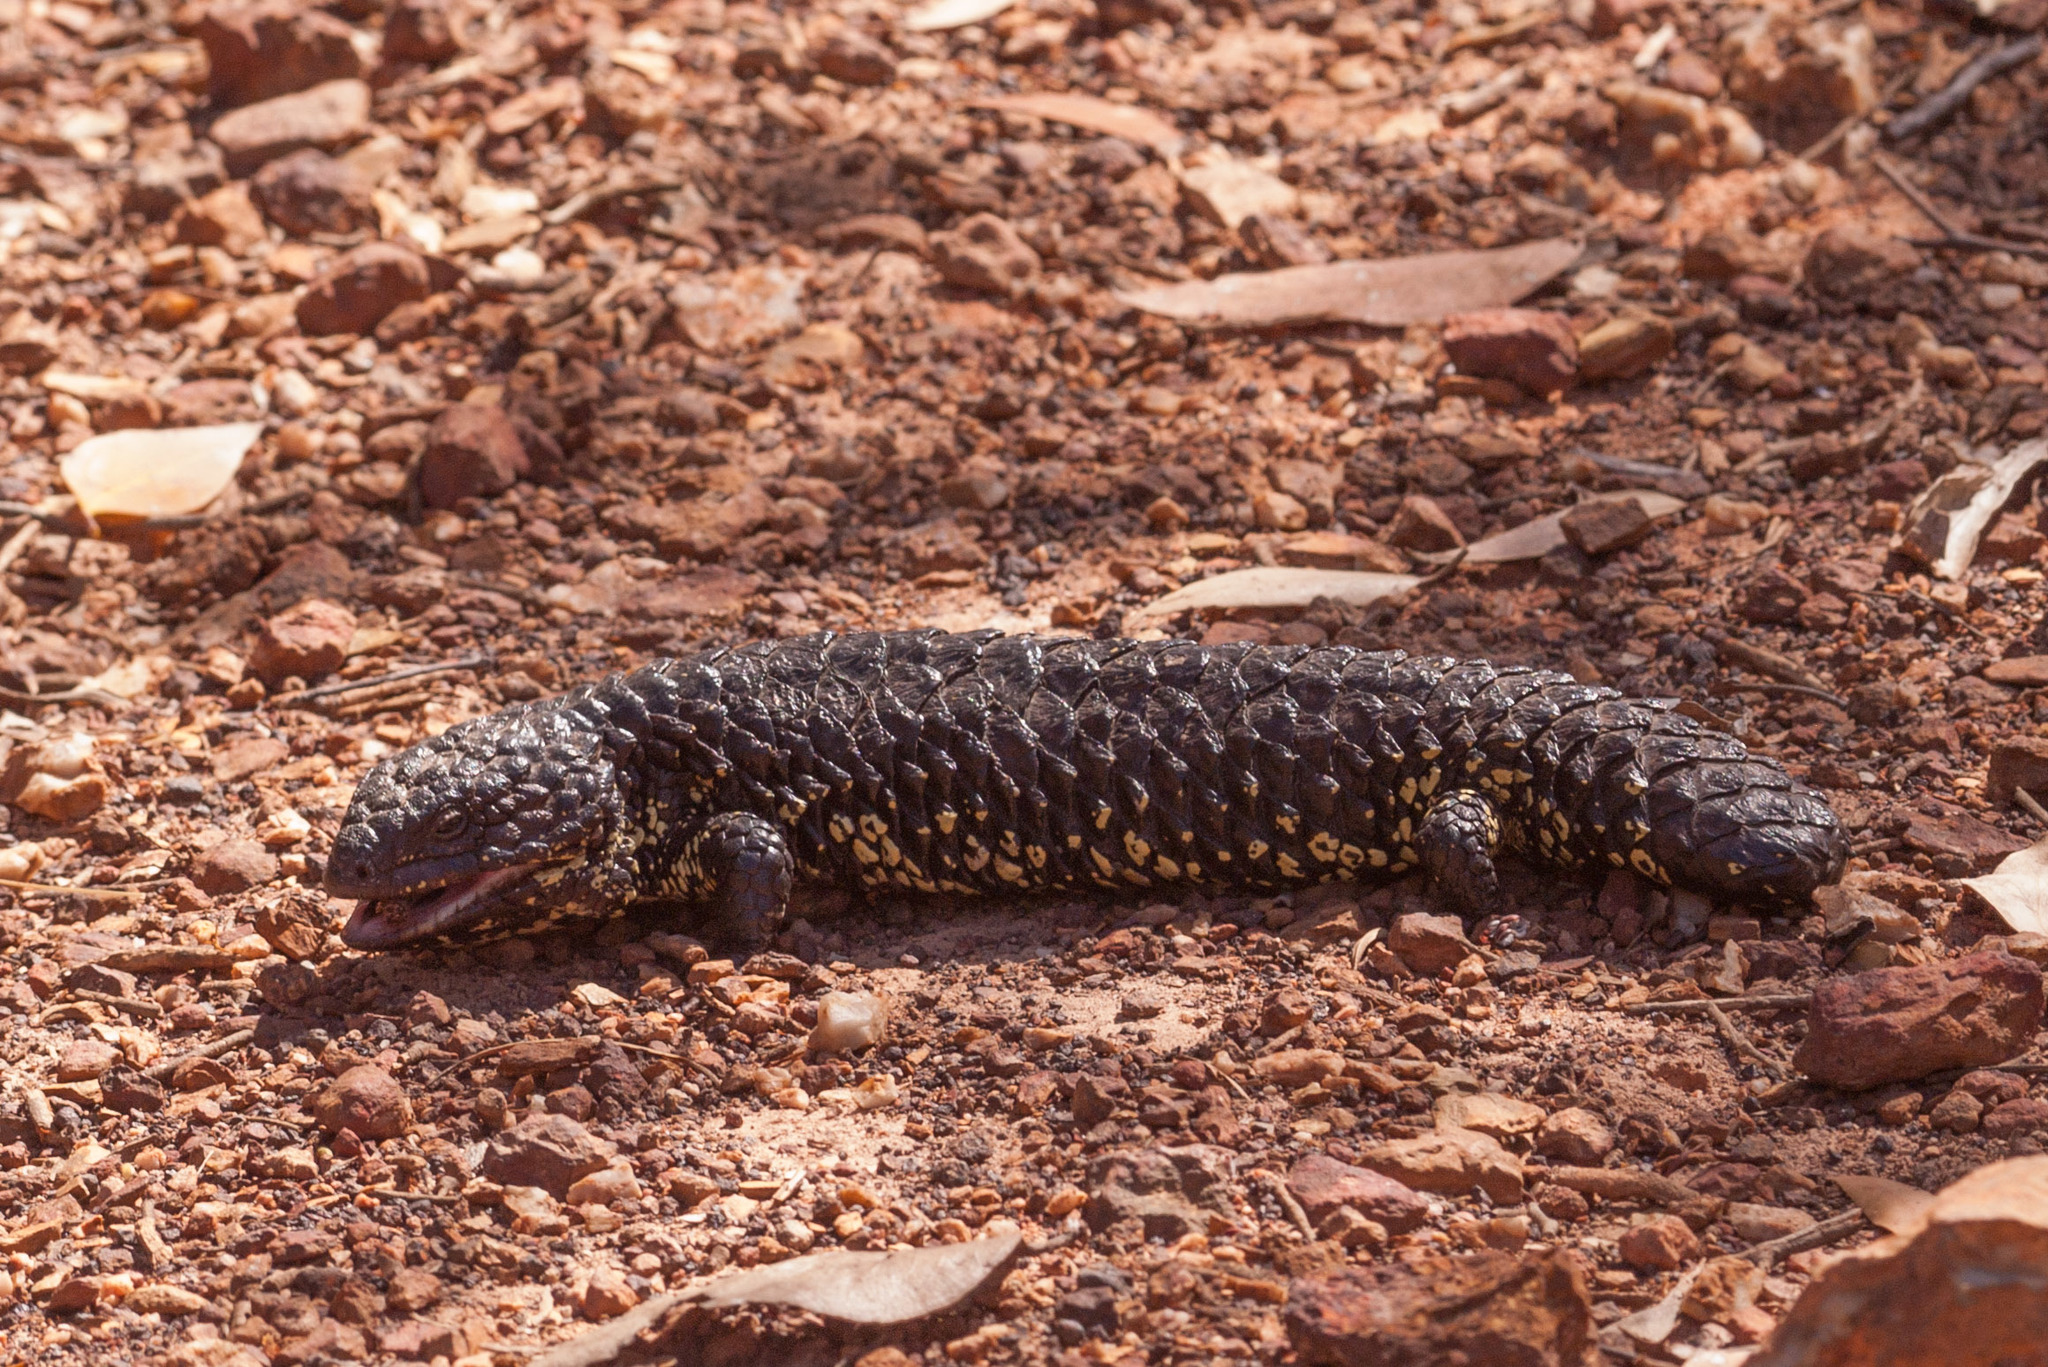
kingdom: Animalia
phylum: Chordata
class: Squamata
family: Scincidae
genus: Tiliqua
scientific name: Tiliqua rugosa
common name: Pinecone lizard
